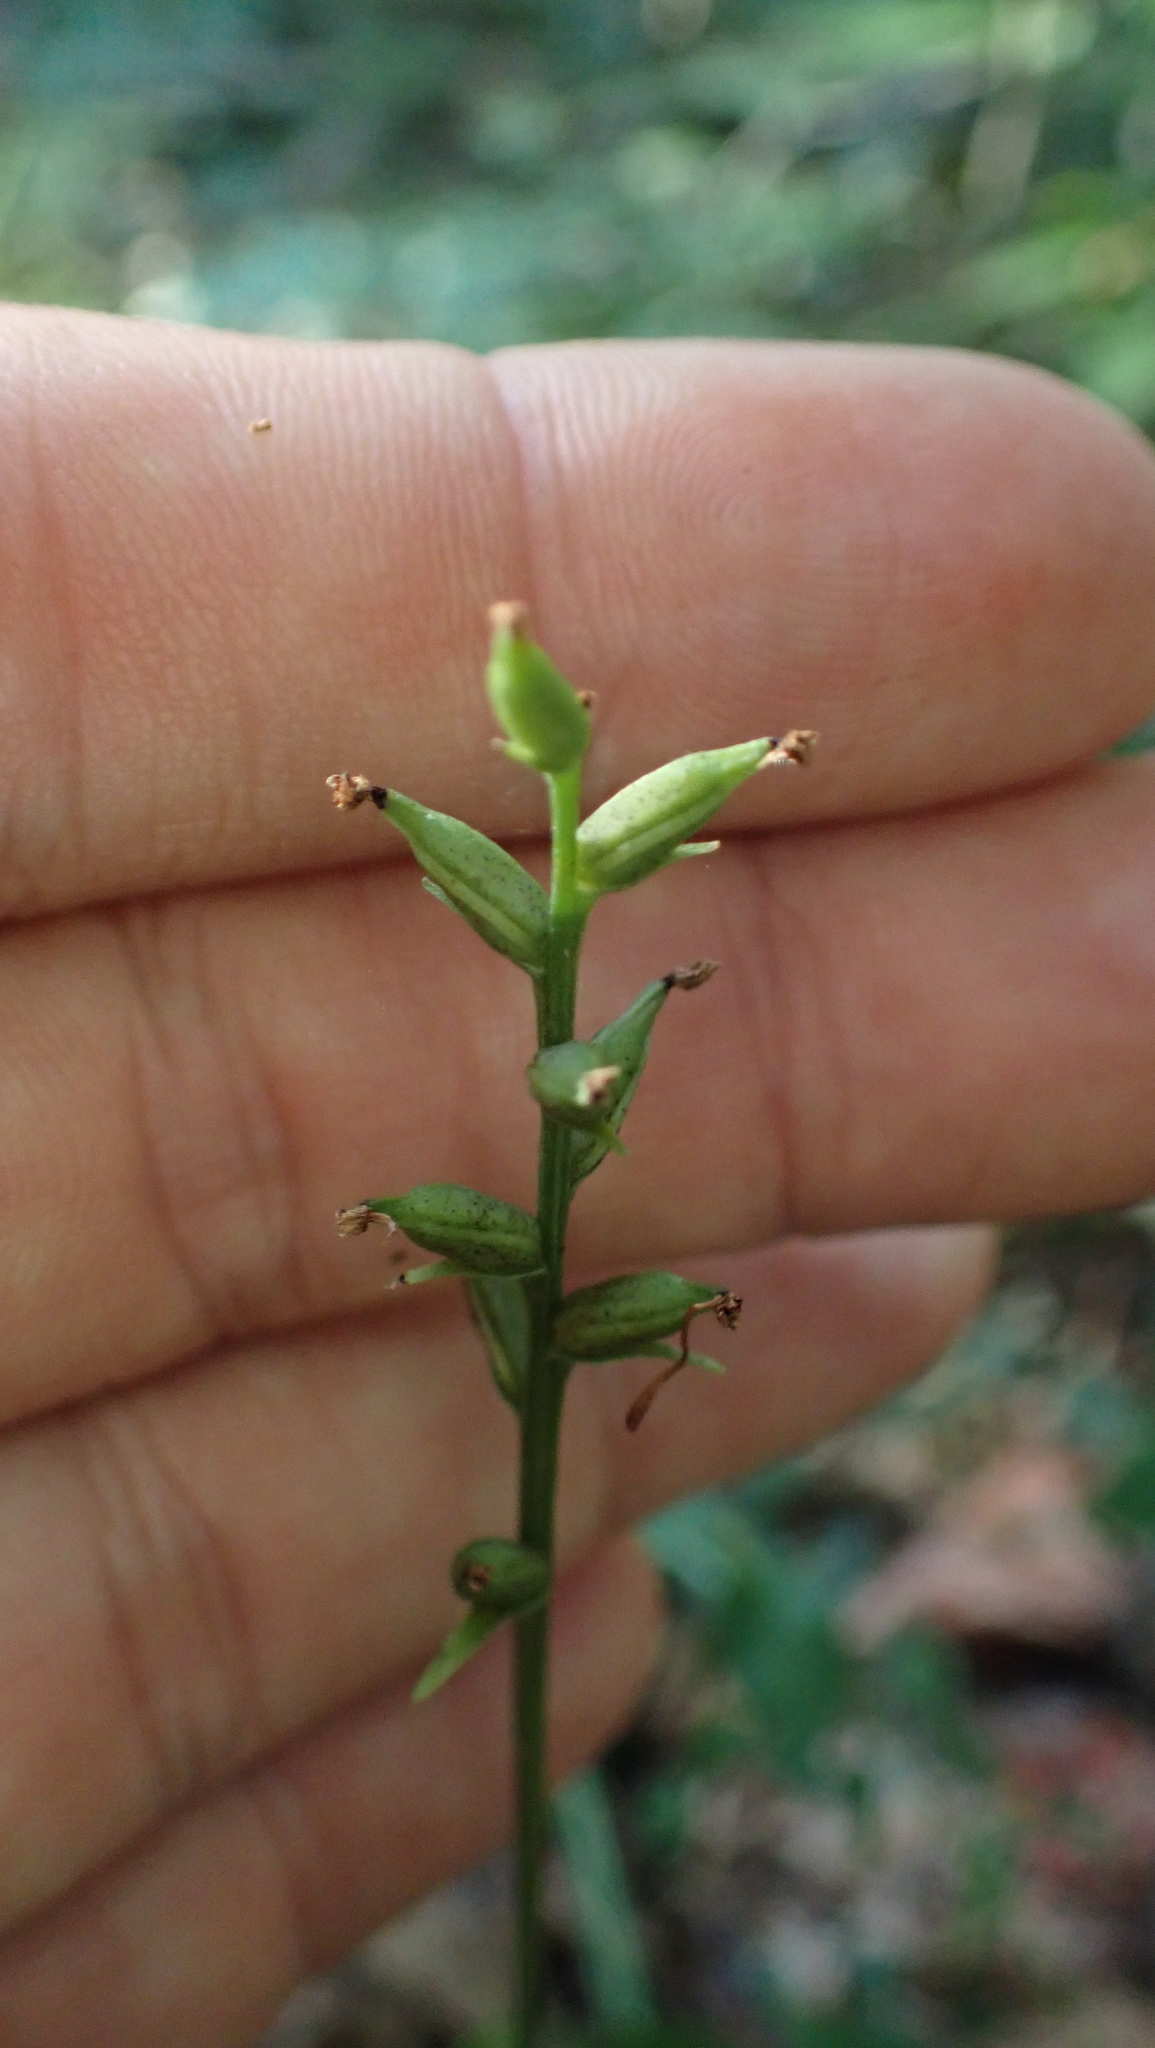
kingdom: Plantae
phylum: Tracheophyta
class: Liliopsida
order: Asparagales
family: Orchidaceae
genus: Platanthera
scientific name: Platanthera clavellata
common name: Club-spur orchid
